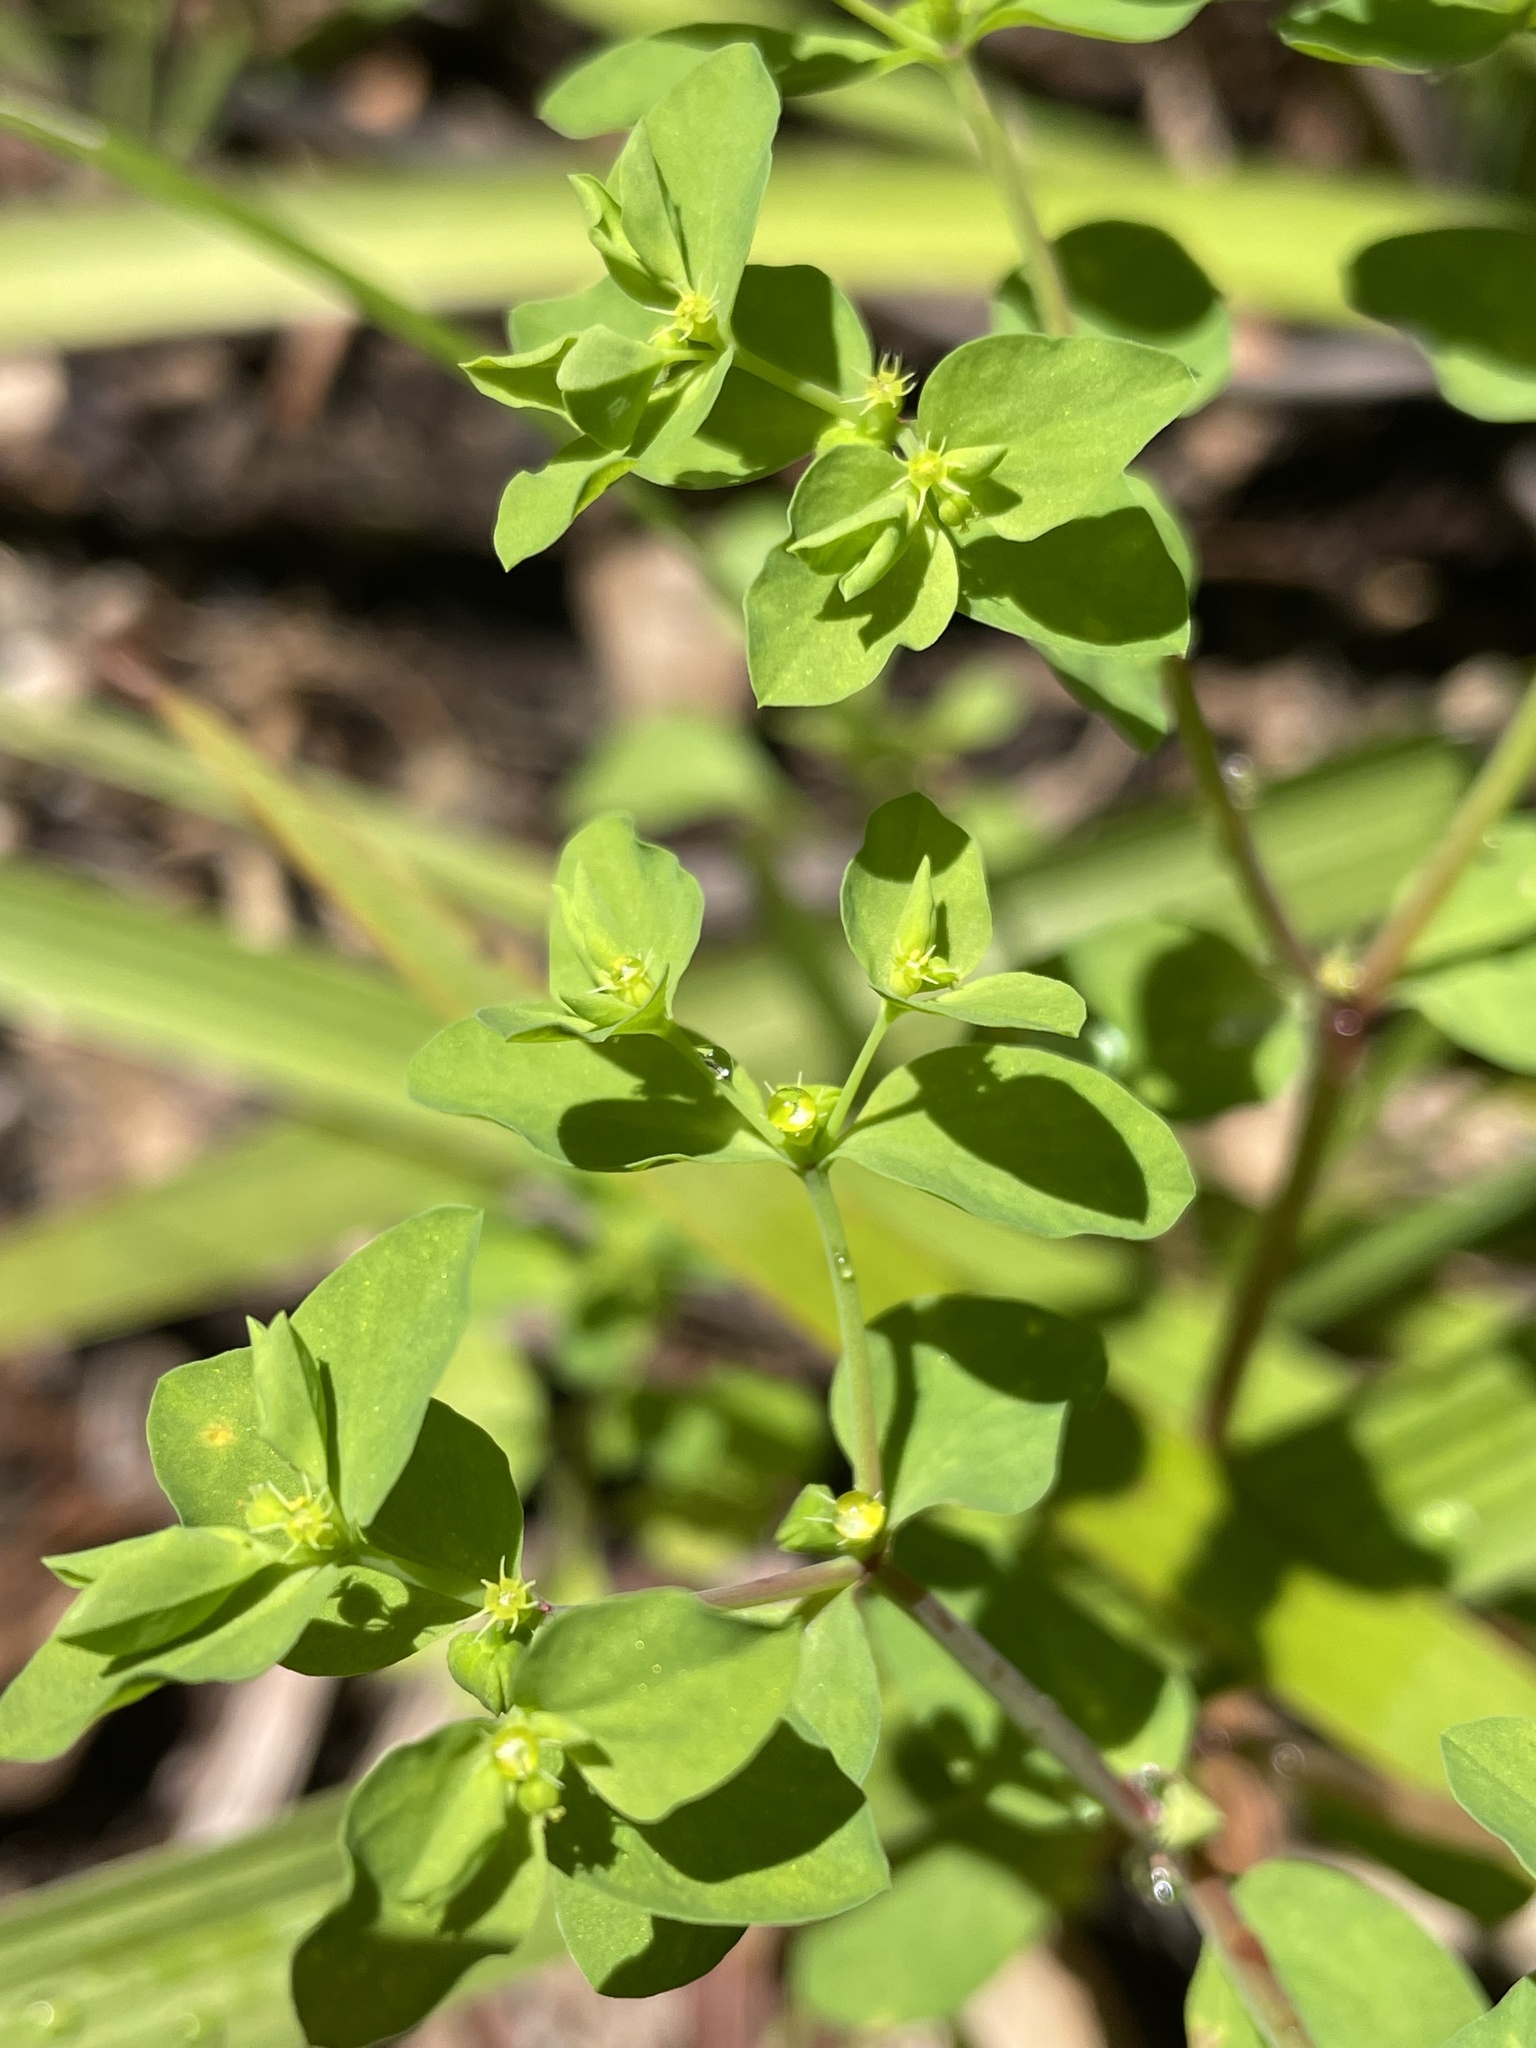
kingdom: Plantae
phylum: Tracheophyta
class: Magnoliopsida
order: Malpighiales
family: Euphorbiaceae
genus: Euphorbia
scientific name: Euphorbia peplus
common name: Petty spurge
